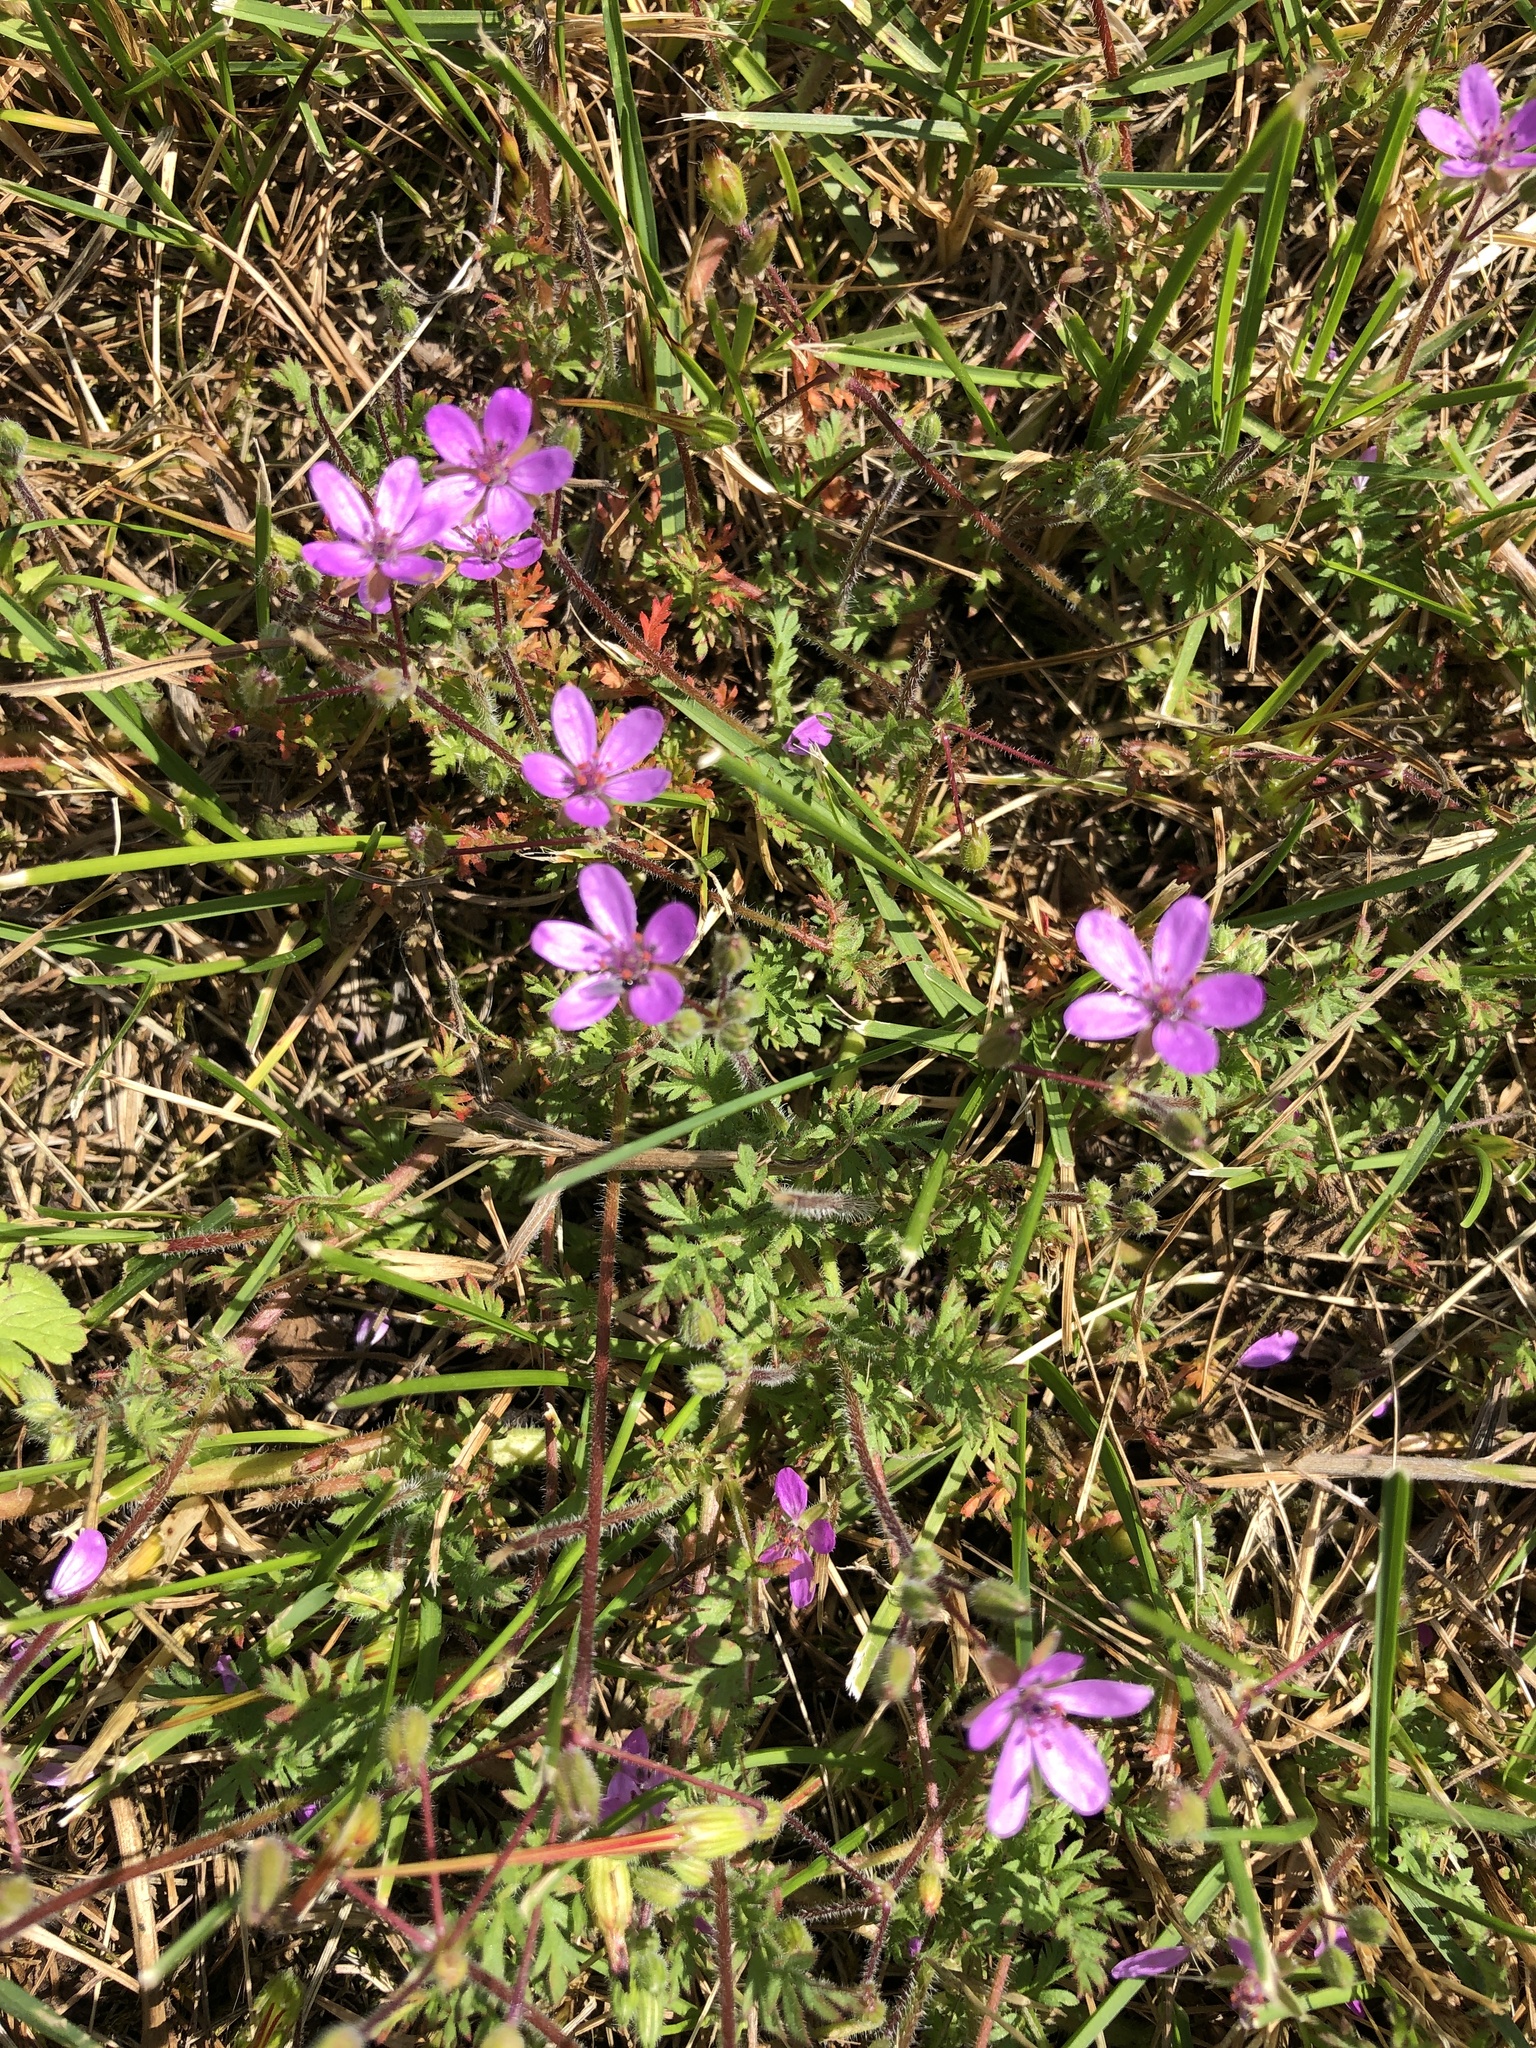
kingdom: Plantae
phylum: Tracheophyta
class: Magnoliopsida
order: Geraniales
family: Geraniaceae
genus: Erodium
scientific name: Erodium cicutarium
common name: Common stork's-bill
